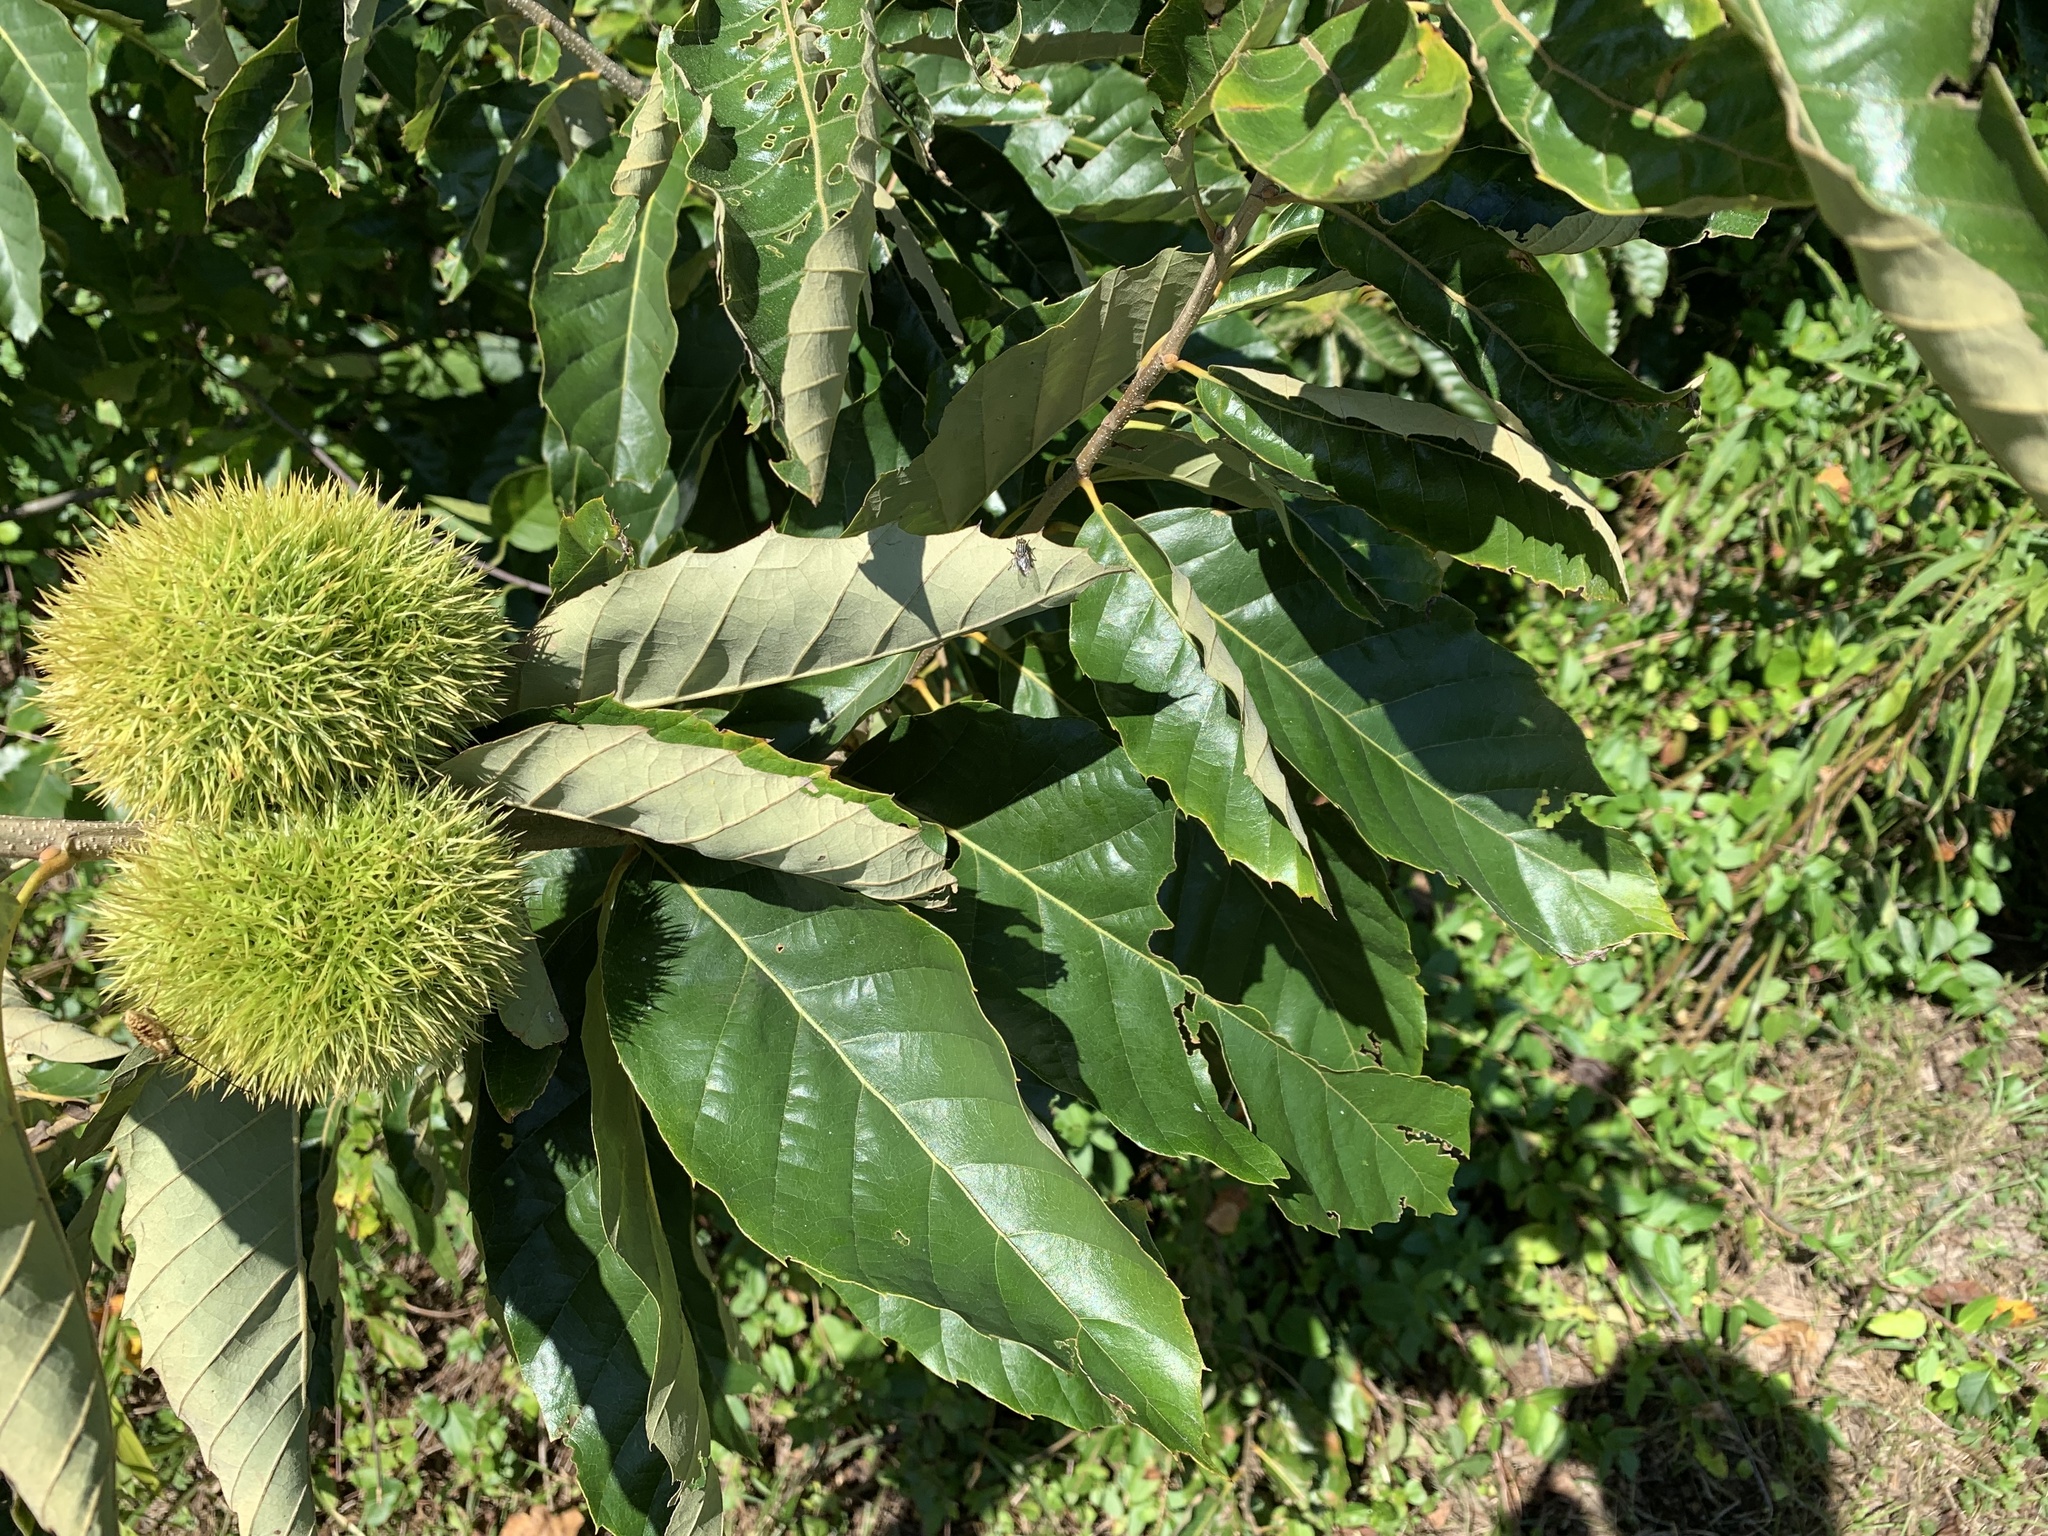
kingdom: Plantae
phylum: Tracheophyta
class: Magnoliopsida
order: Fagales
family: Fagaceae
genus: Castanea
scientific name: Castanea mollissima
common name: Chinese chestnut
